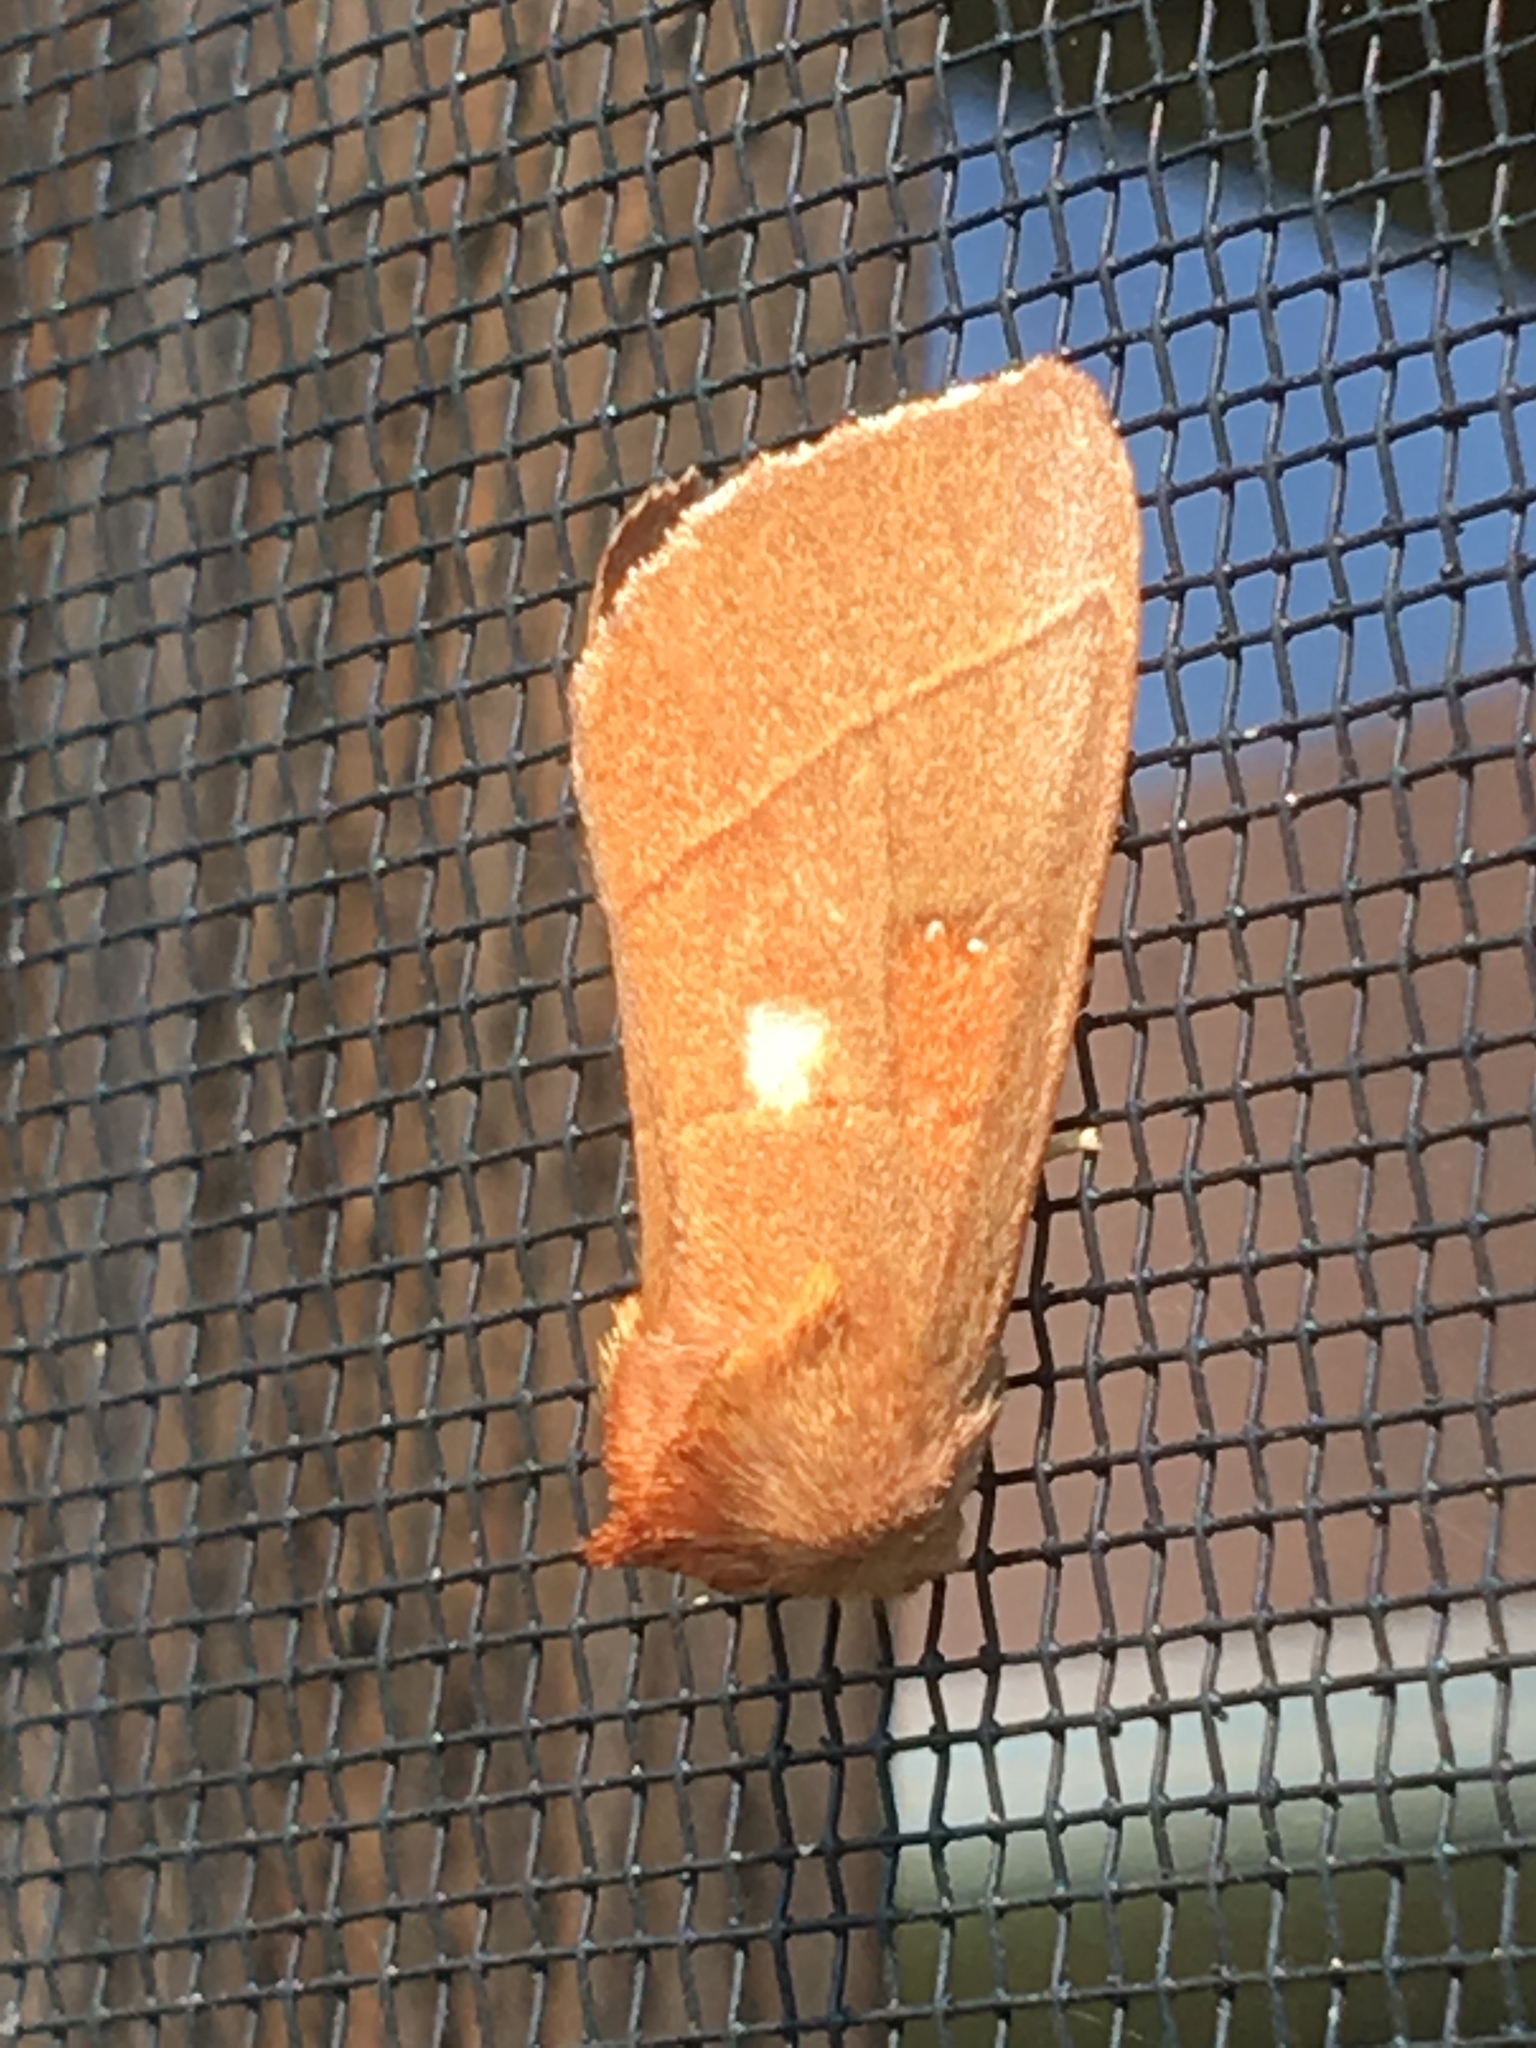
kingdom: Animalia
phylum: Arthropoda
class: Insecta
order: Lepidoptera
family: Notodontidae
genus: Nadata
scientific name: Nadata gibbosa
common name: White-dotted prominent
